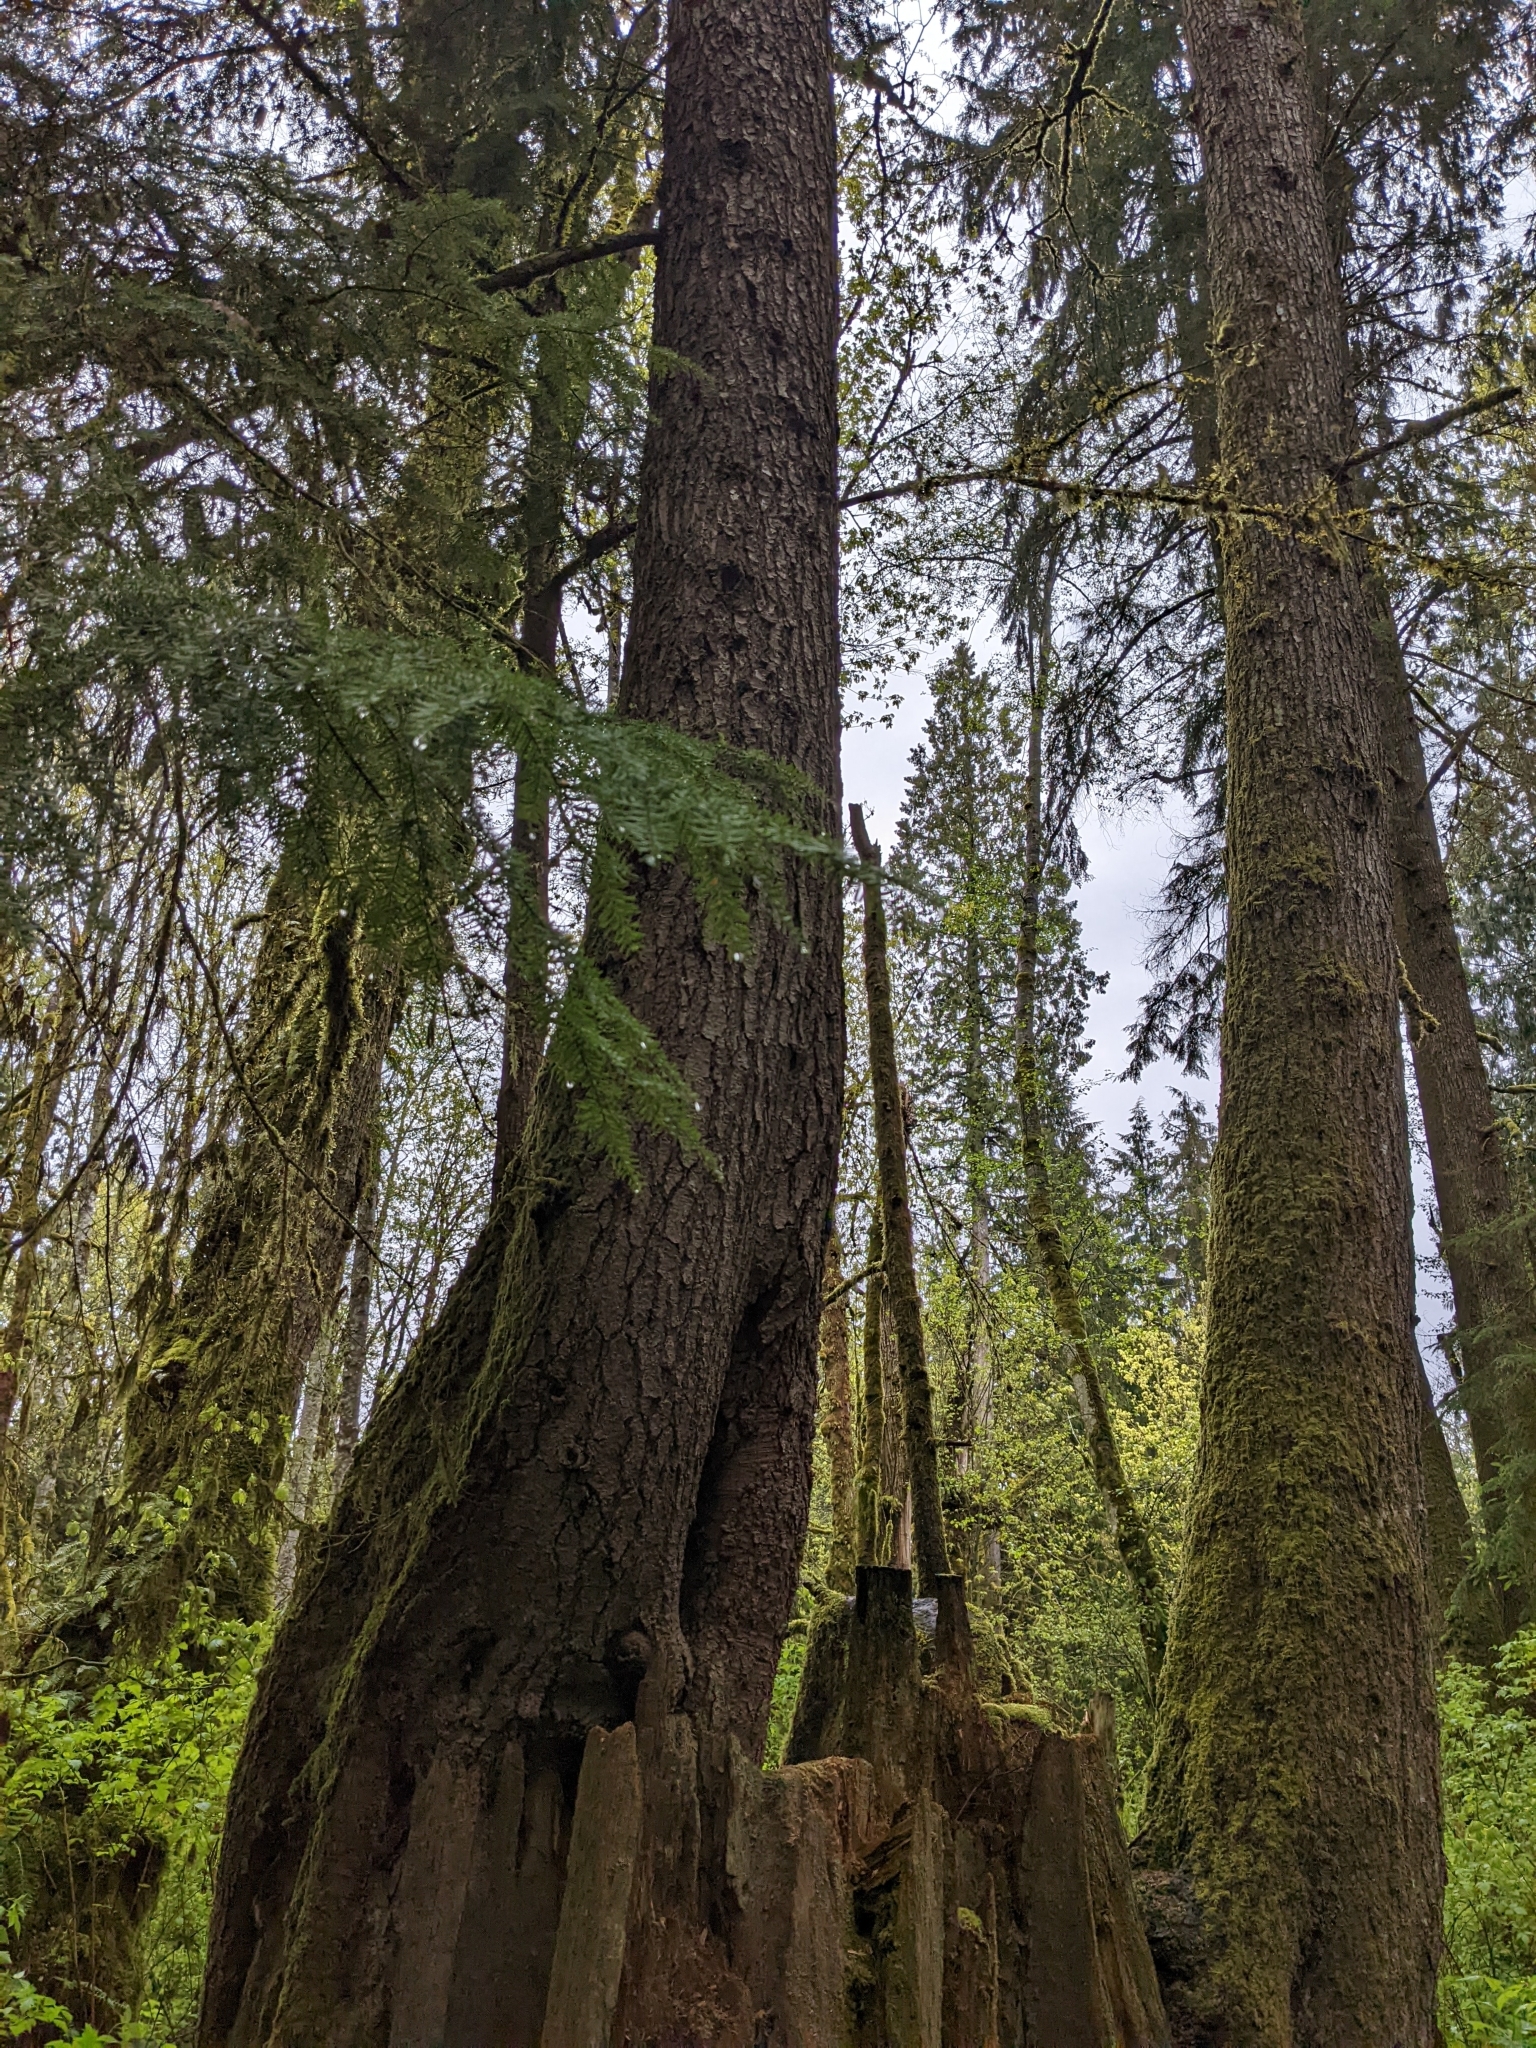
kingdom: Plantae
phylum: Tracheophyta
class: Pinopsida
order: Pinales
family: Pinaceae
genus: Tsuga
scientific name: Tsuga heterophylla
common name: Western hemlock
